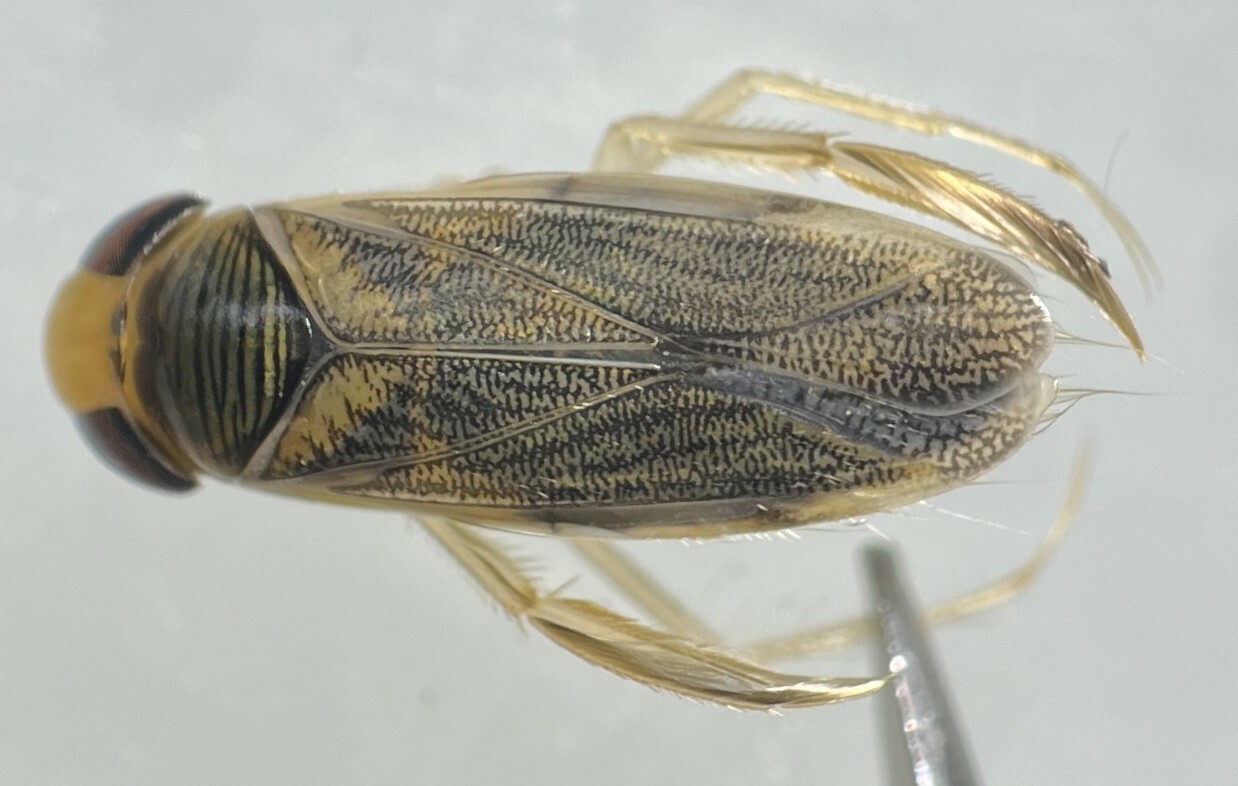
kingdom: Animalia
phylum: Arthropoda
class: Insecta
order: Hemiptera
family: Corixidae
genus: Corisella
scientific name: Corisella edulis
